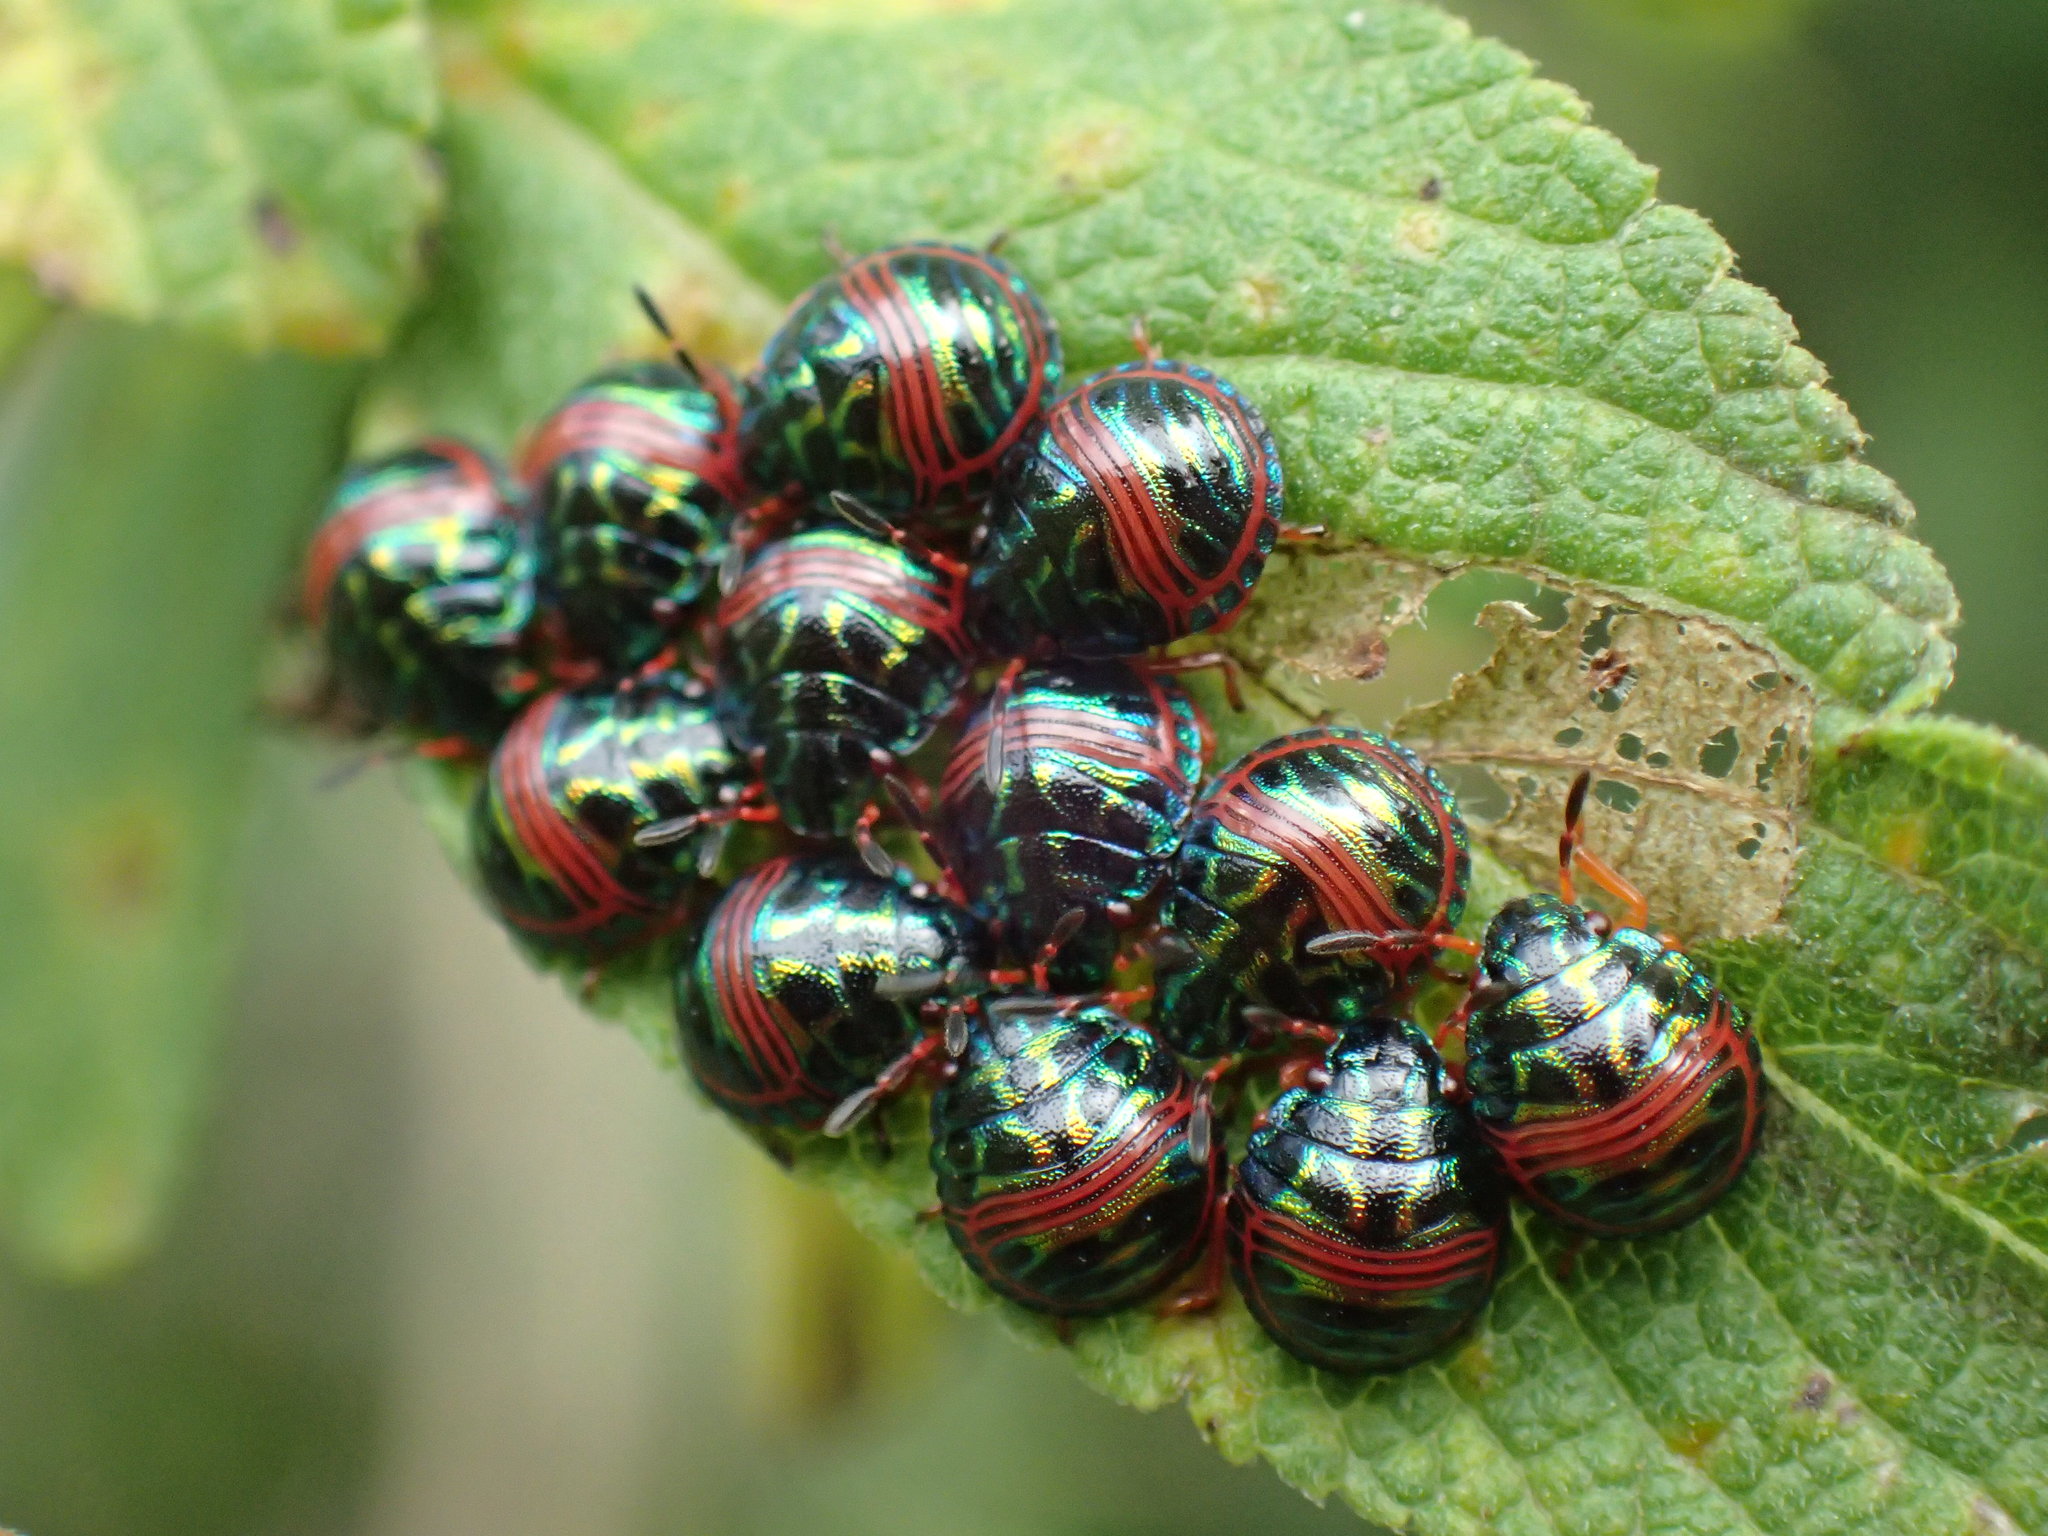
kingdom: Animalia
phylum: Arthropoda
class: Insecta
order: Hemiptera
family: Scutelleridae
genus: Calidea
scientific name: Calidea dregii
